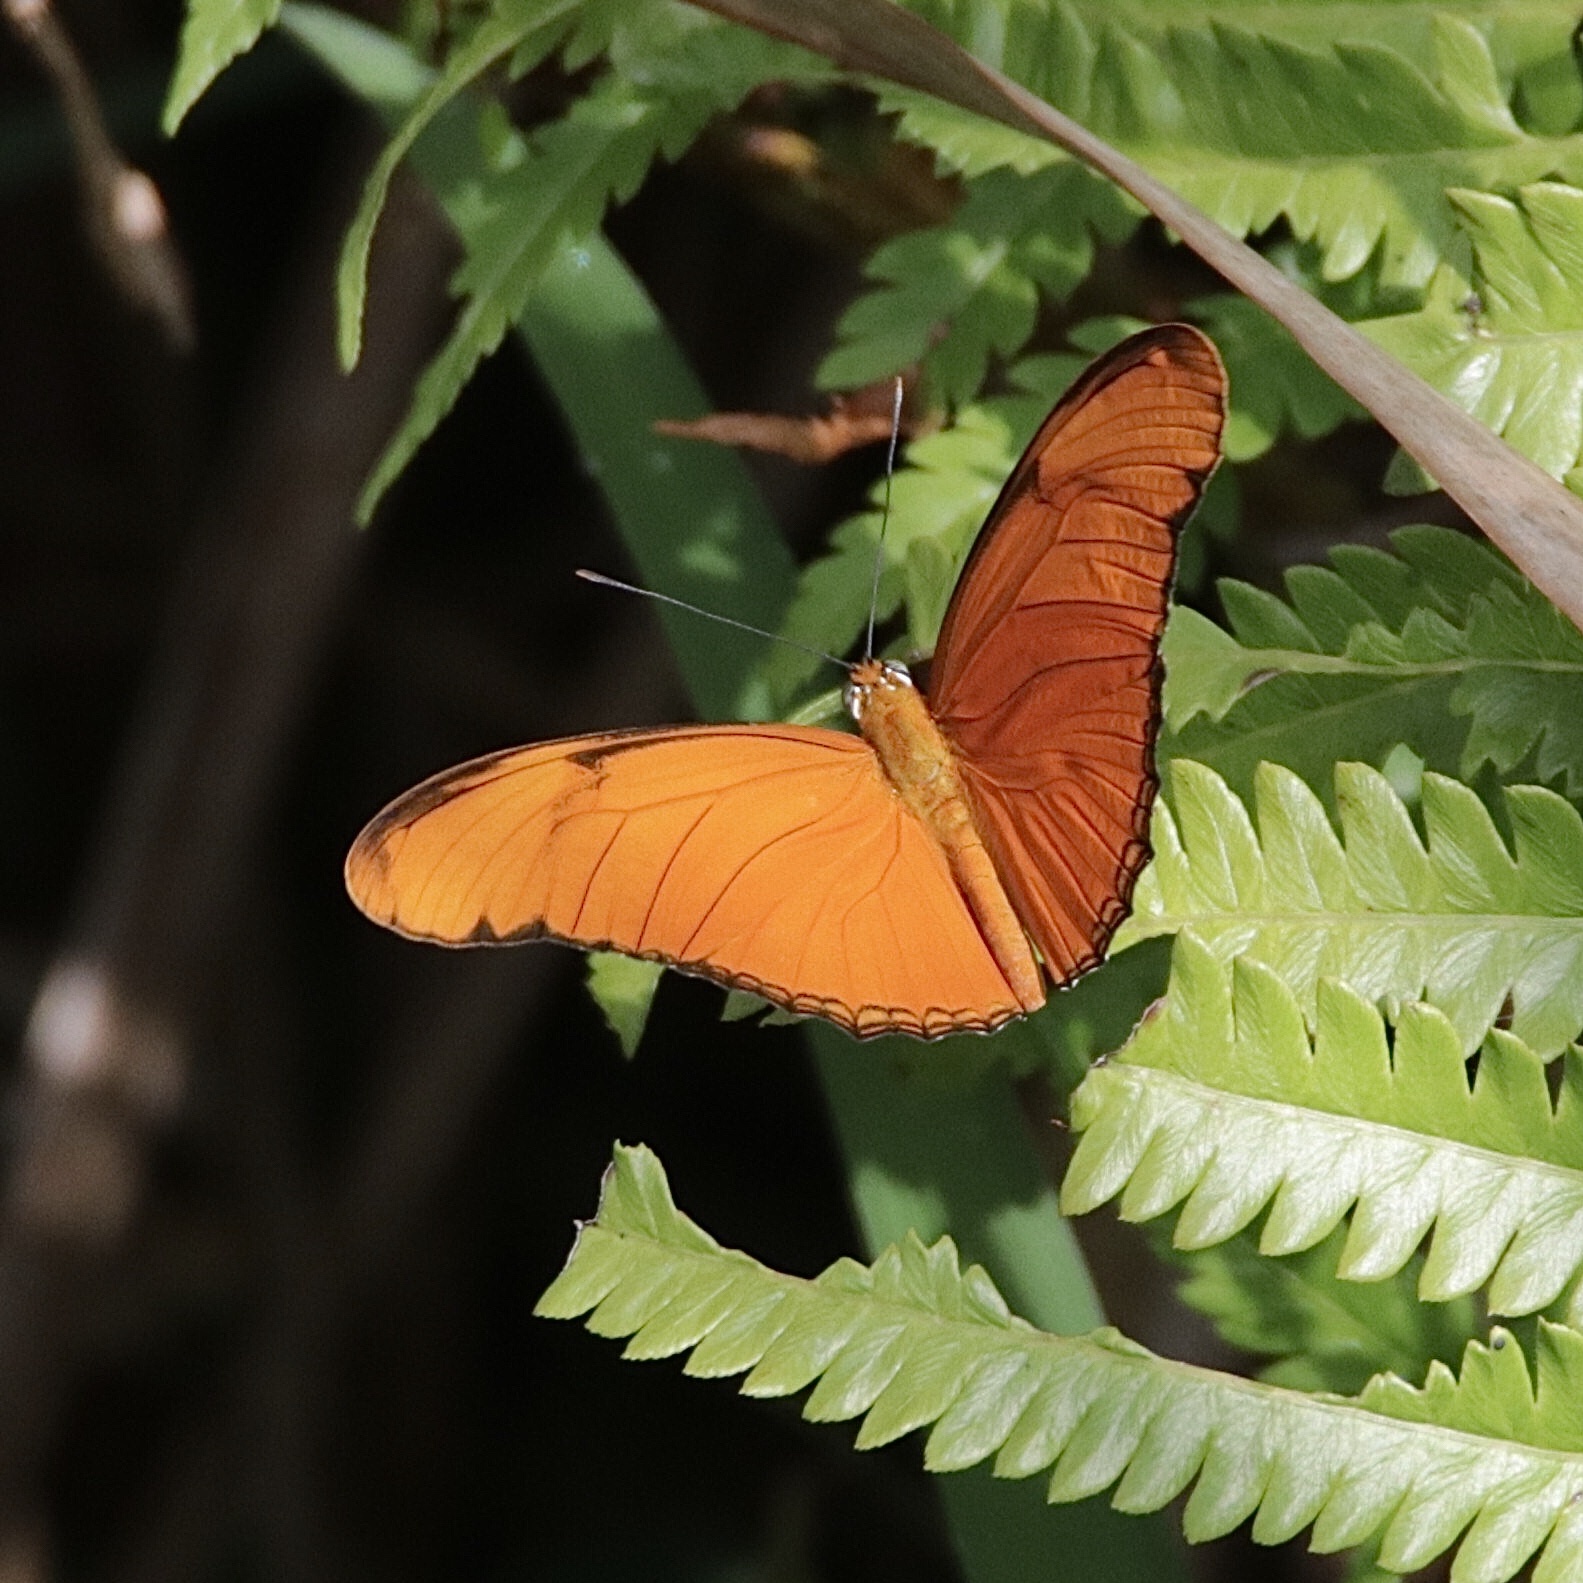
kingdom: Animalia
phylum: Arthropoda
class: Insecta
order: Lepidoptera
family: Nymphalidae
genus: Dryas
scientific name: Dryas iulia
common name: Flambeau
